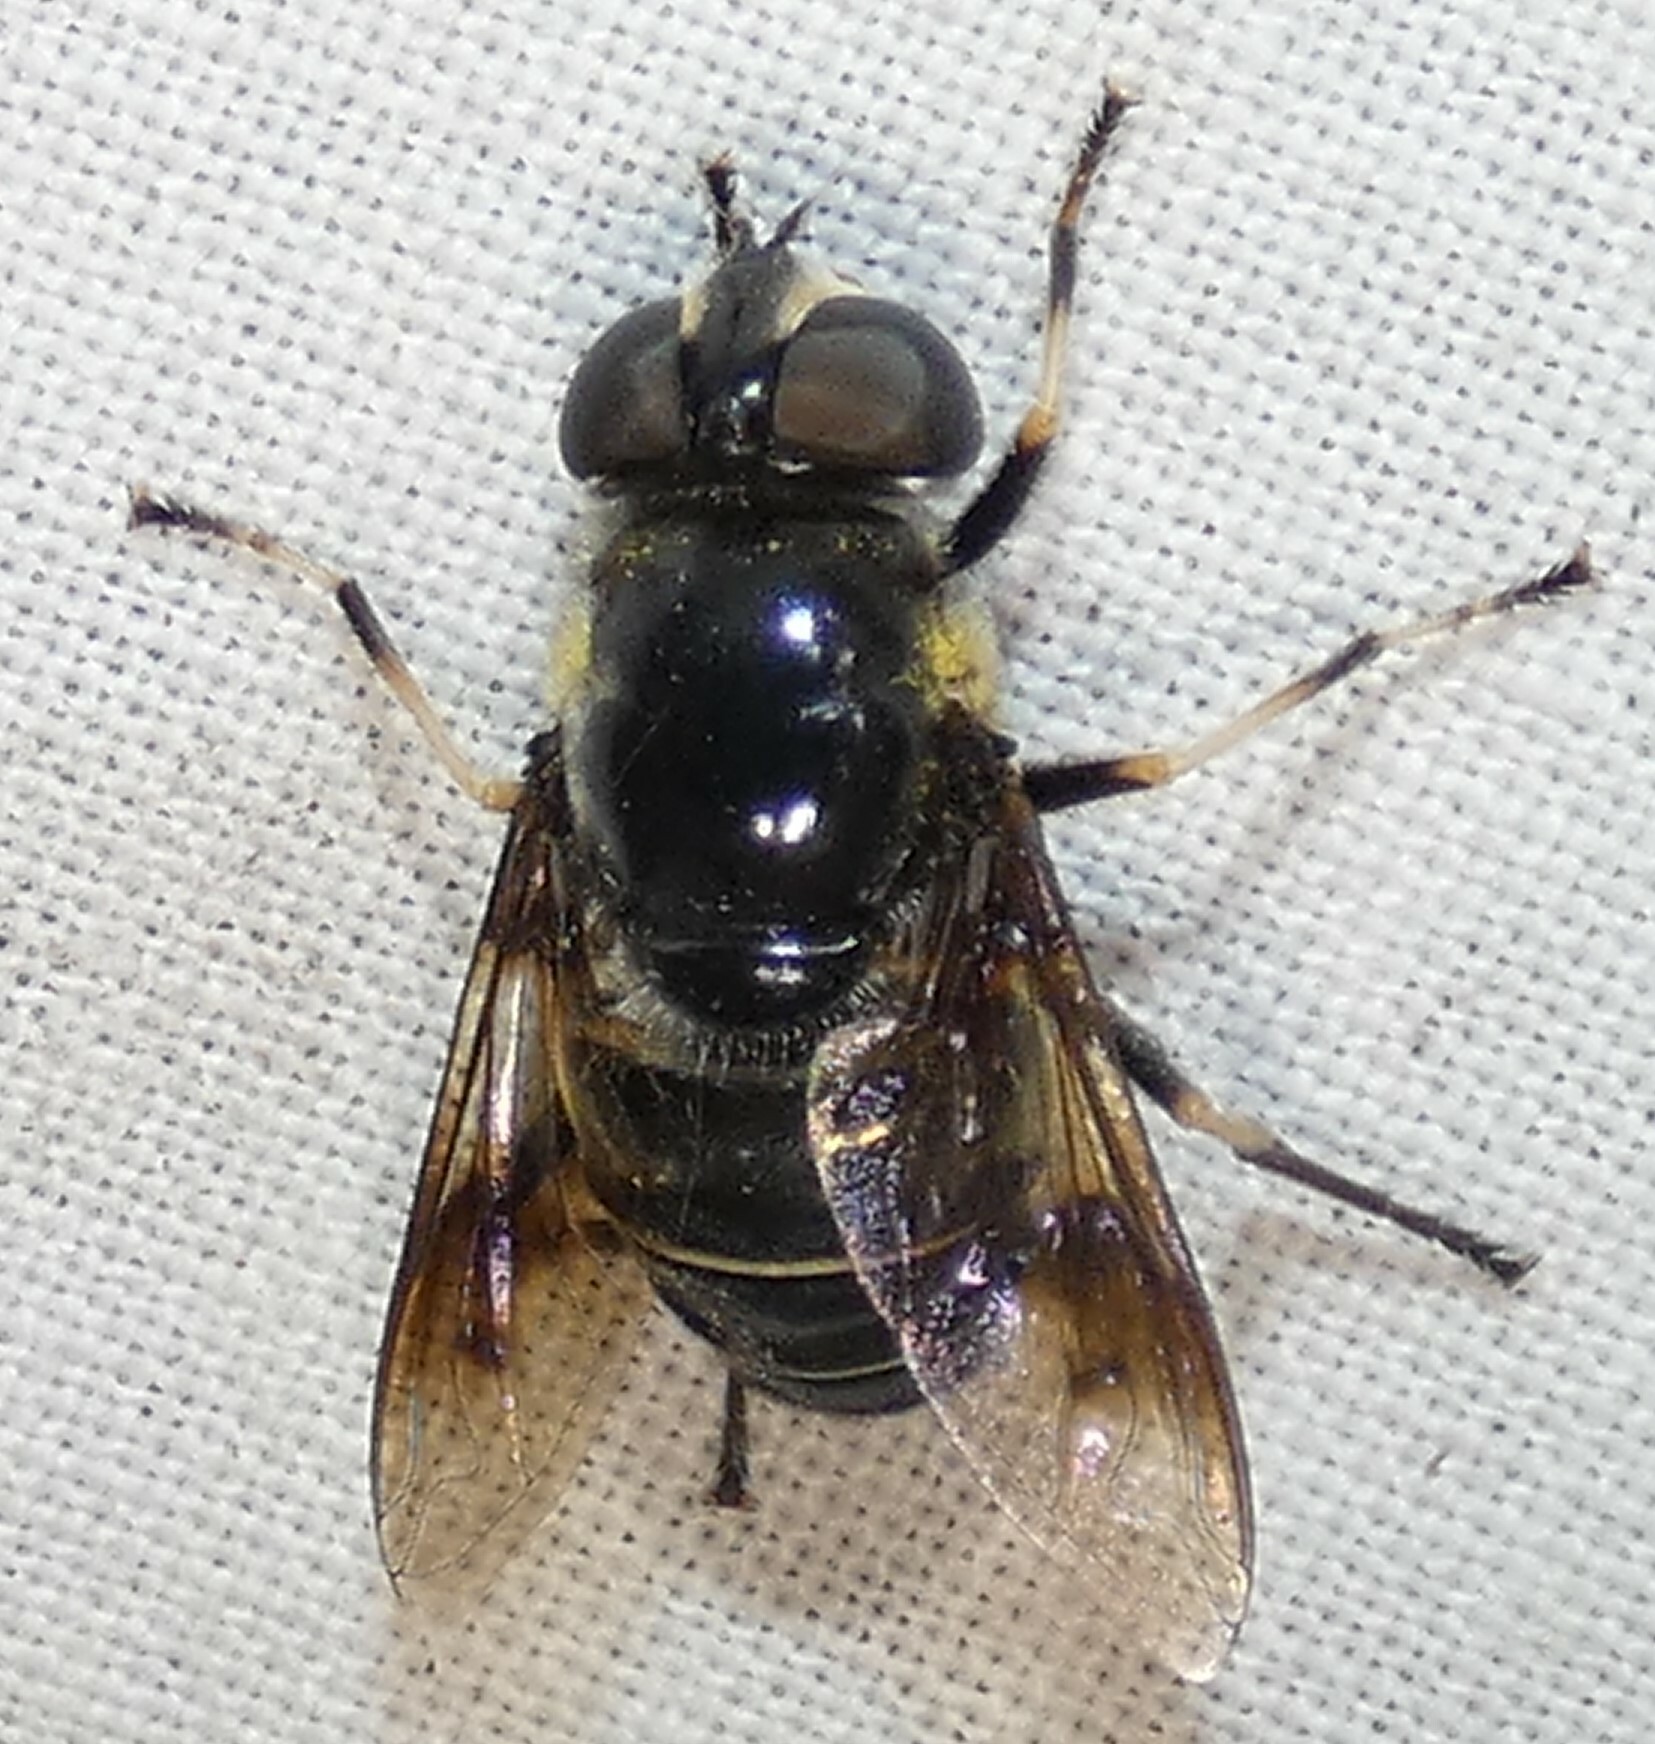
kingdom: Animalia
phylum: Arthropoda
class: Insecta
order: Diptera
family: Syrphidae
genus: Eristalis
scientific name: Eristalis saxorum
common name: Blue-polished drone fly
